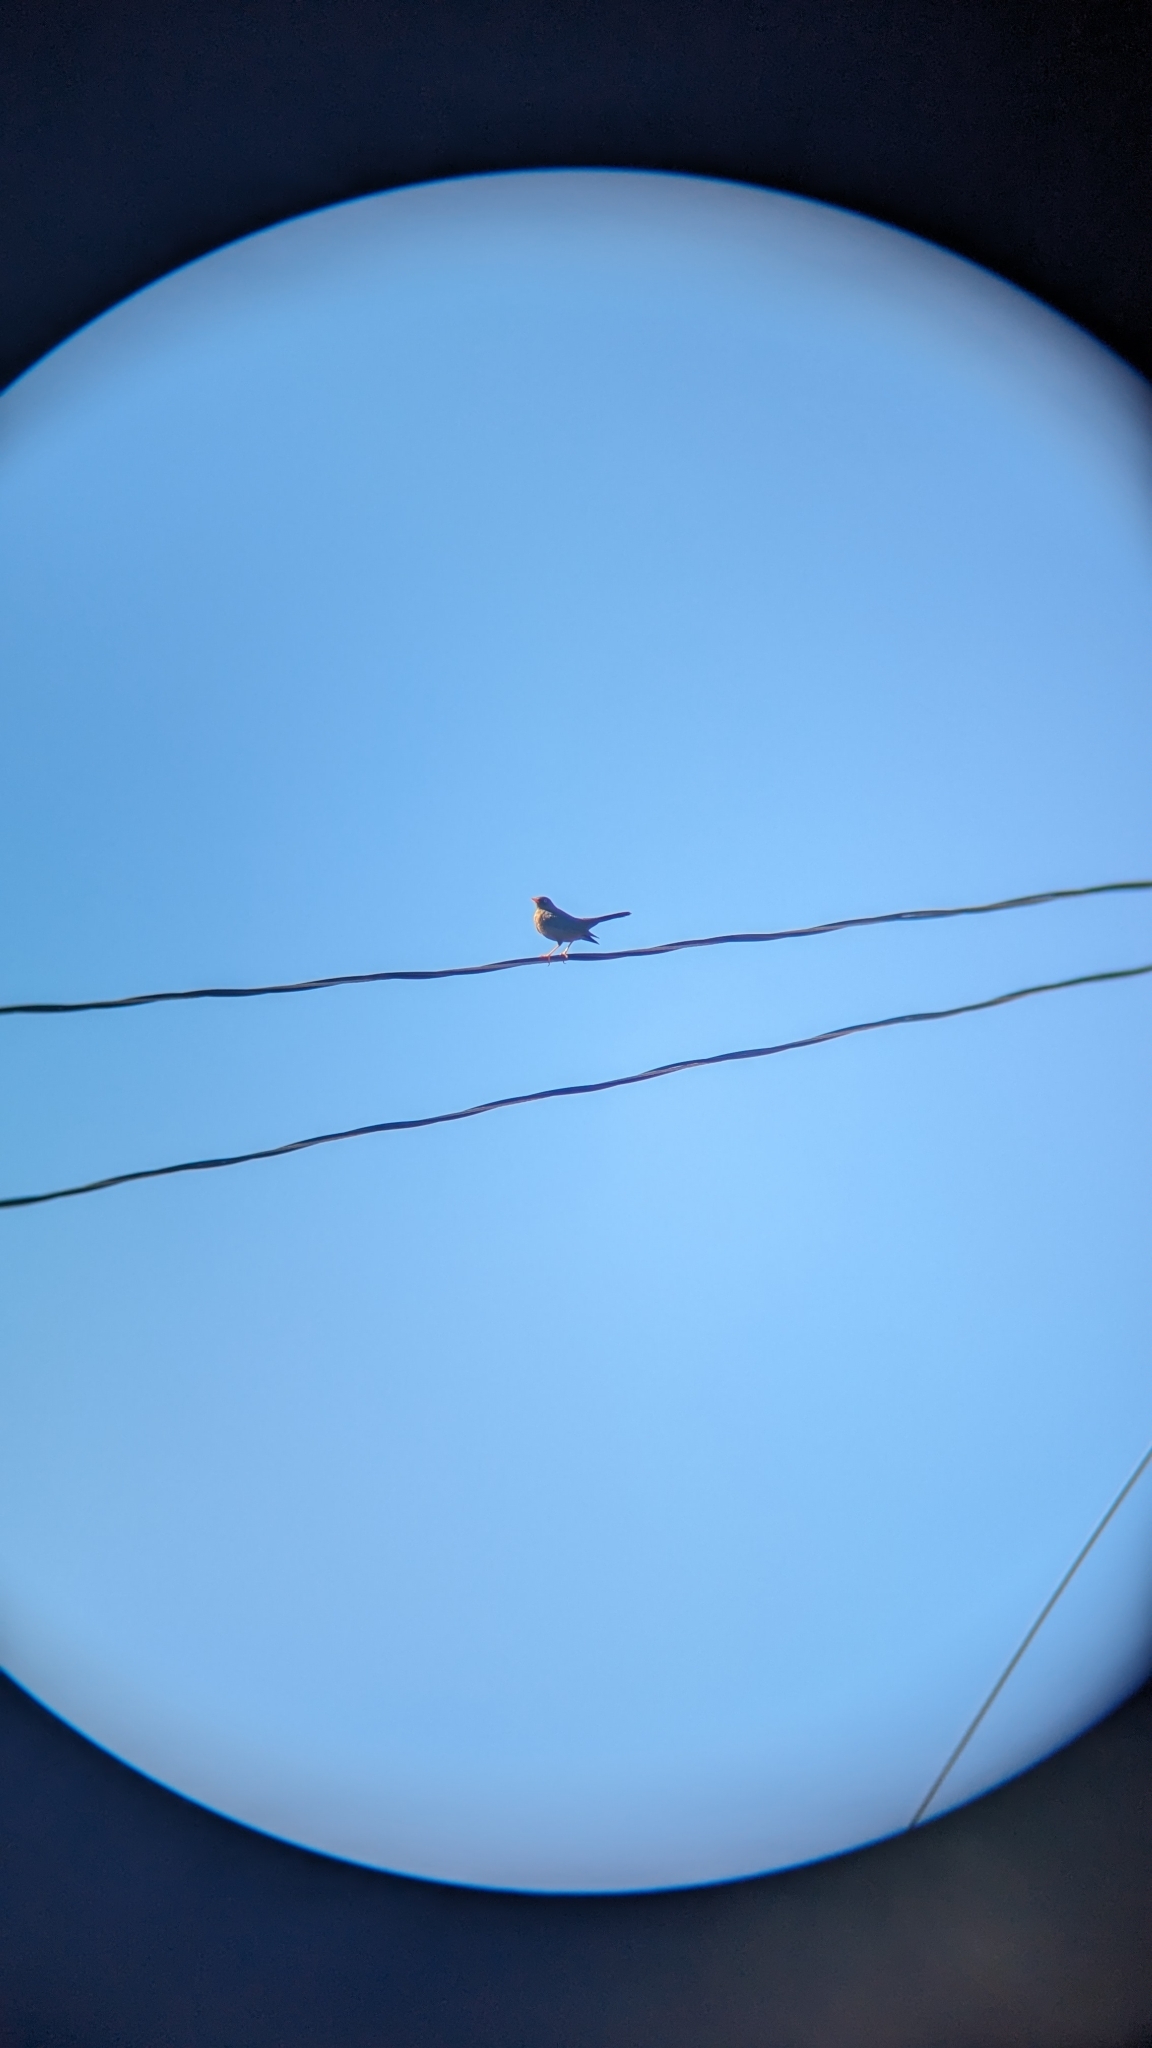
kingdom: Animalia
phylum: Chordata
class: Aves
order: Passeriformes
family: Turdidae
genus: Turdus
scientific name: Turdus nigrescens
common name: Sooty thrush
